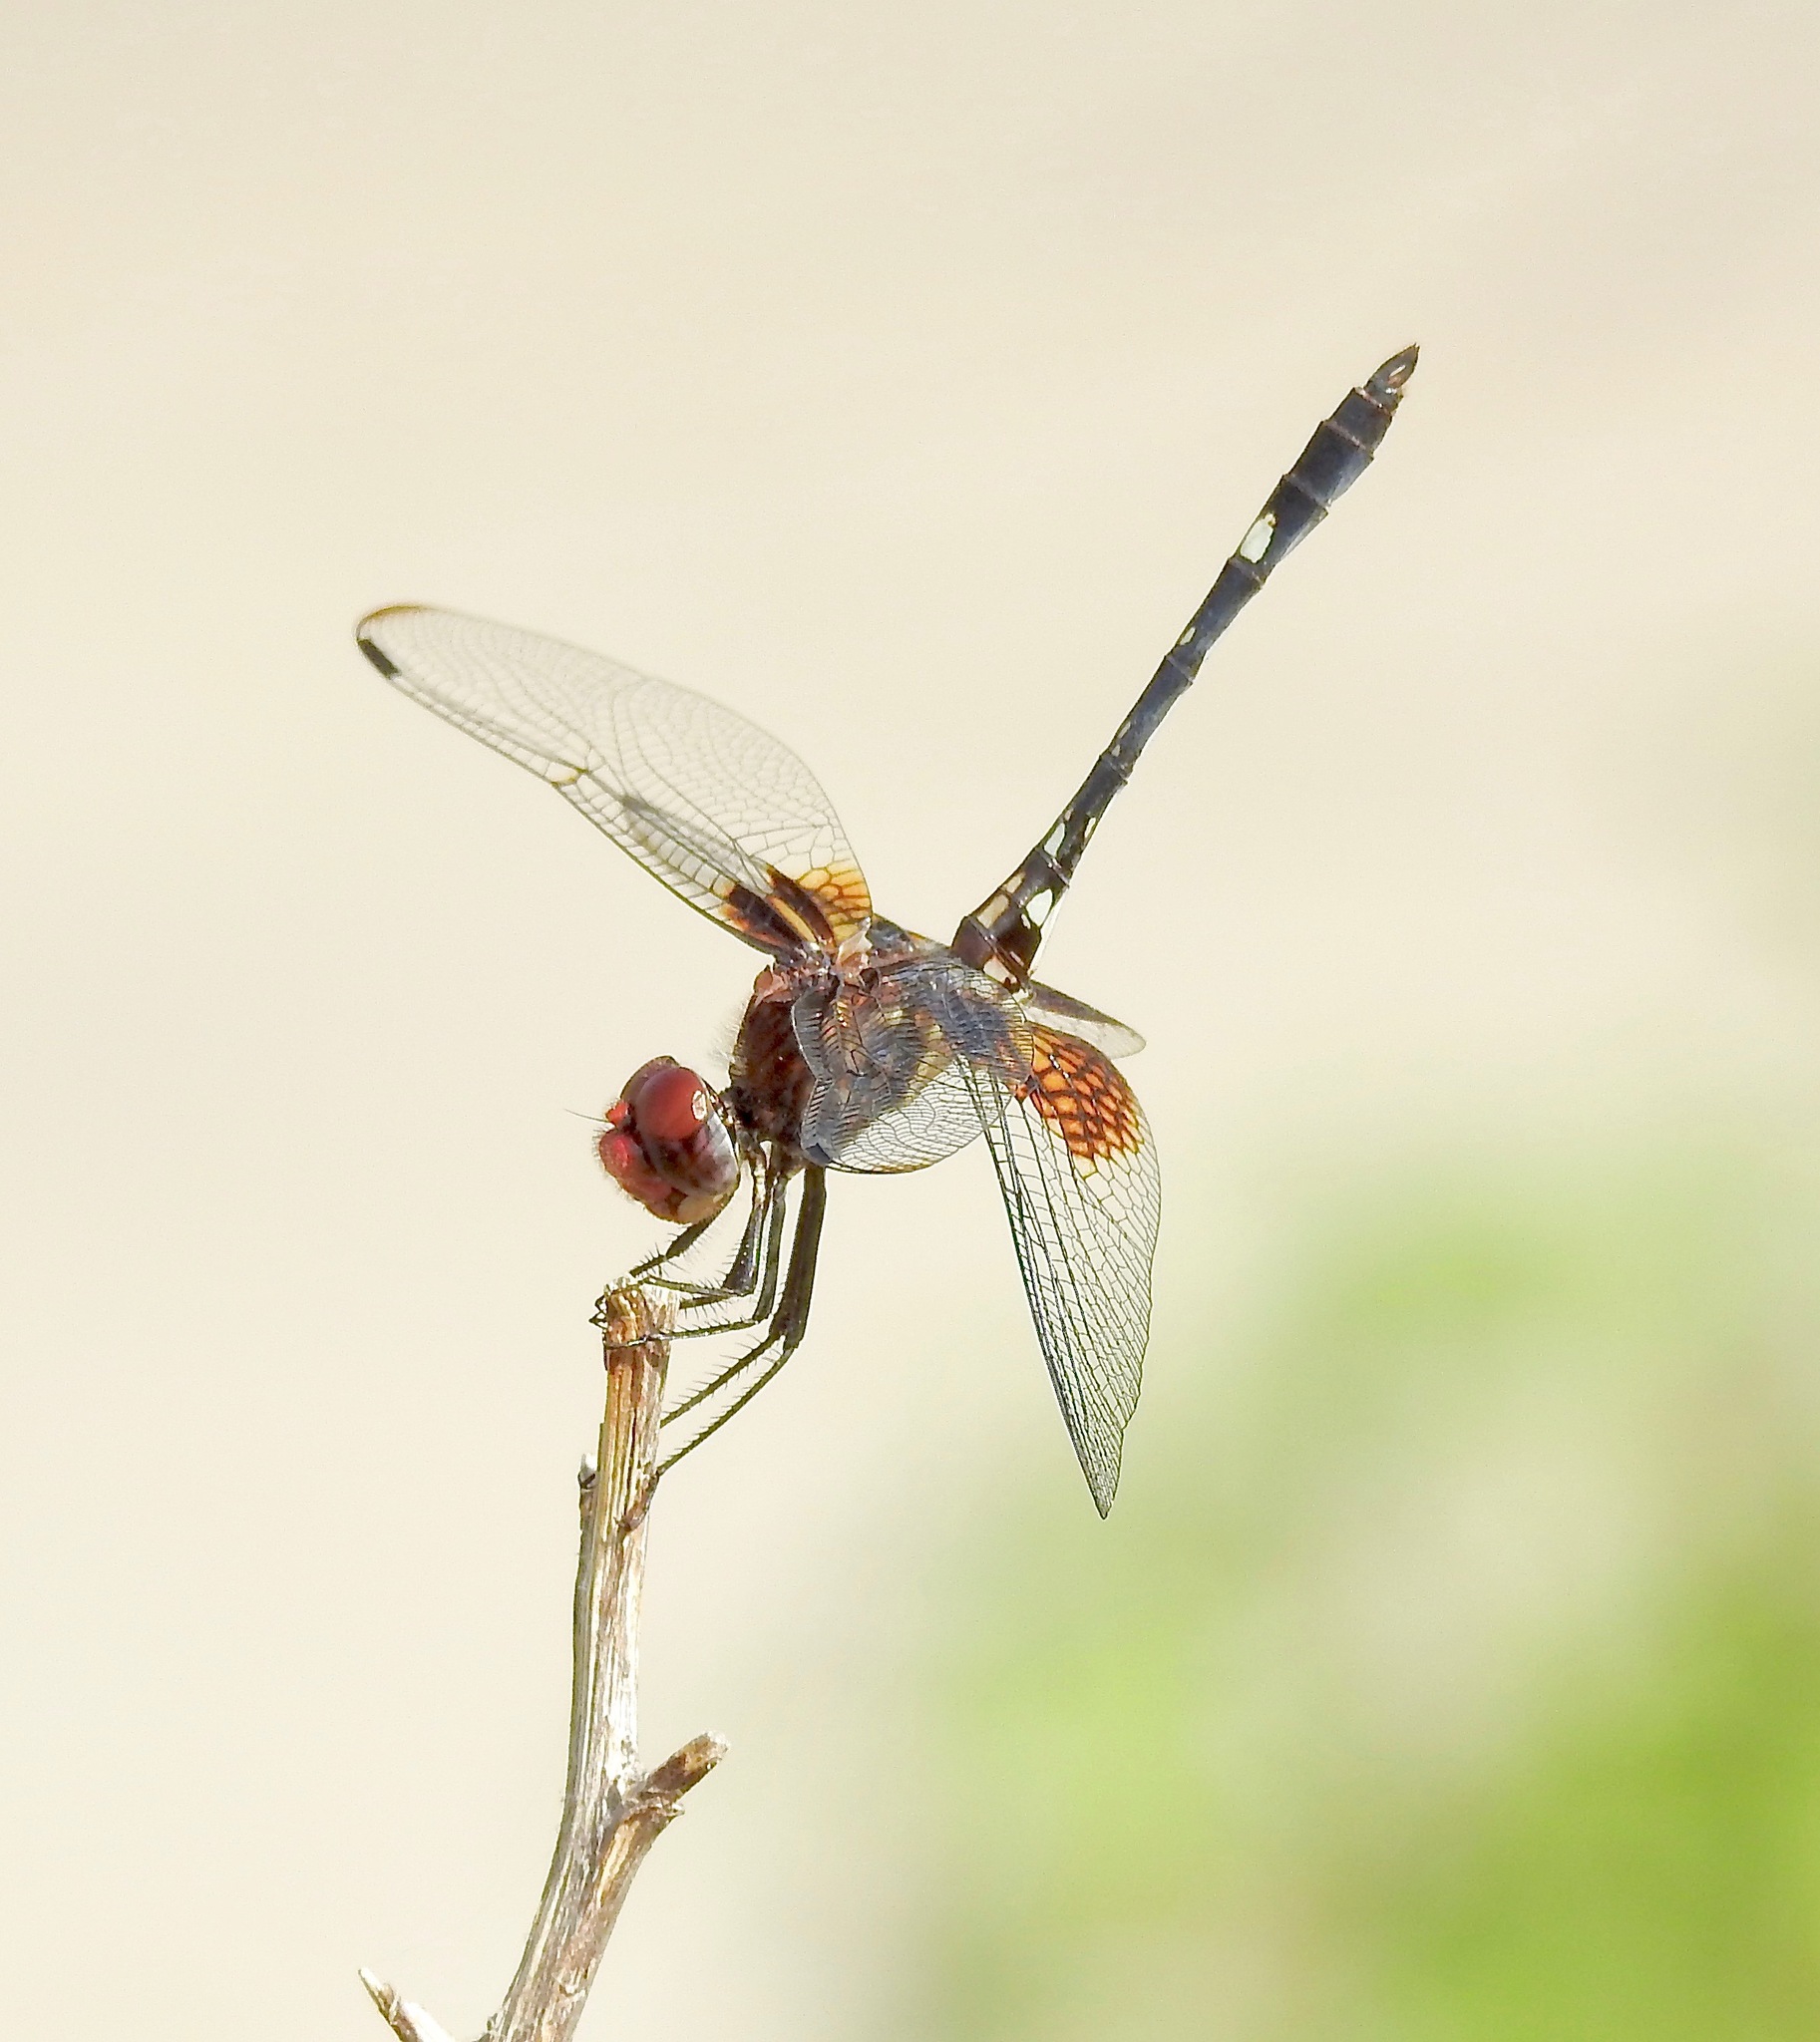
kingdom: Animalia
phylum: Arthropoda
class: Insecta
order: Odonata
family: Libellulidae
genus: Dythemis
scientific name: Dythemis fugax
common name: Checkered setwing
